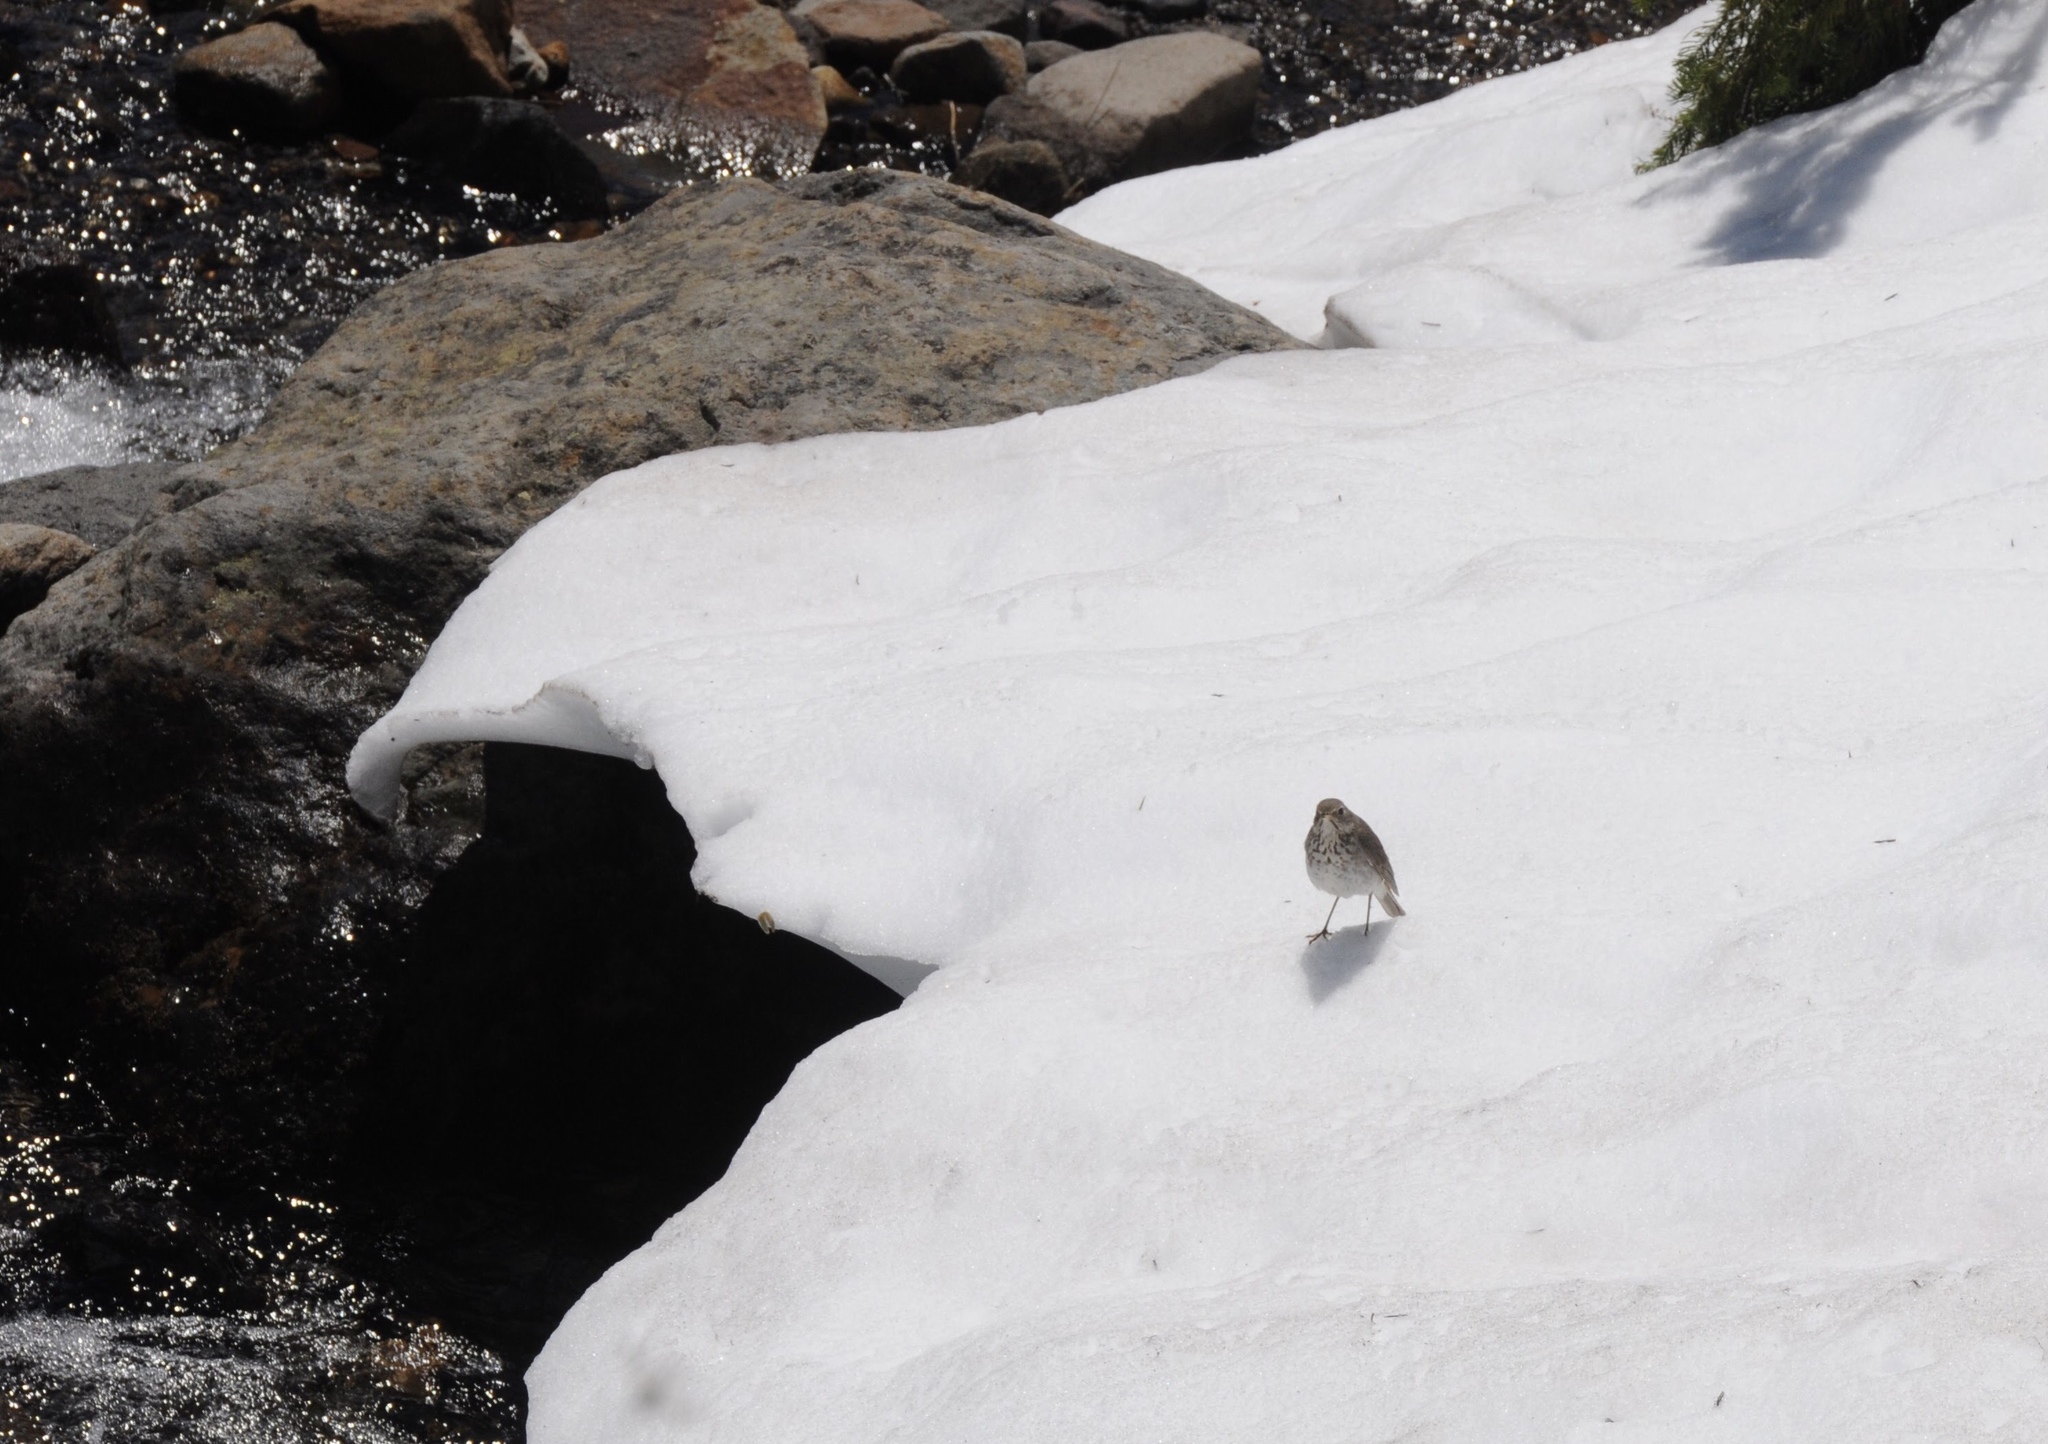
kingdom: Animalia
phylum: Chordata
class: Aves
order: Passeriformes
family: Turdidae
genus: Catharus
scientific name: Catharus guttatus
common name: Hermit thrush
